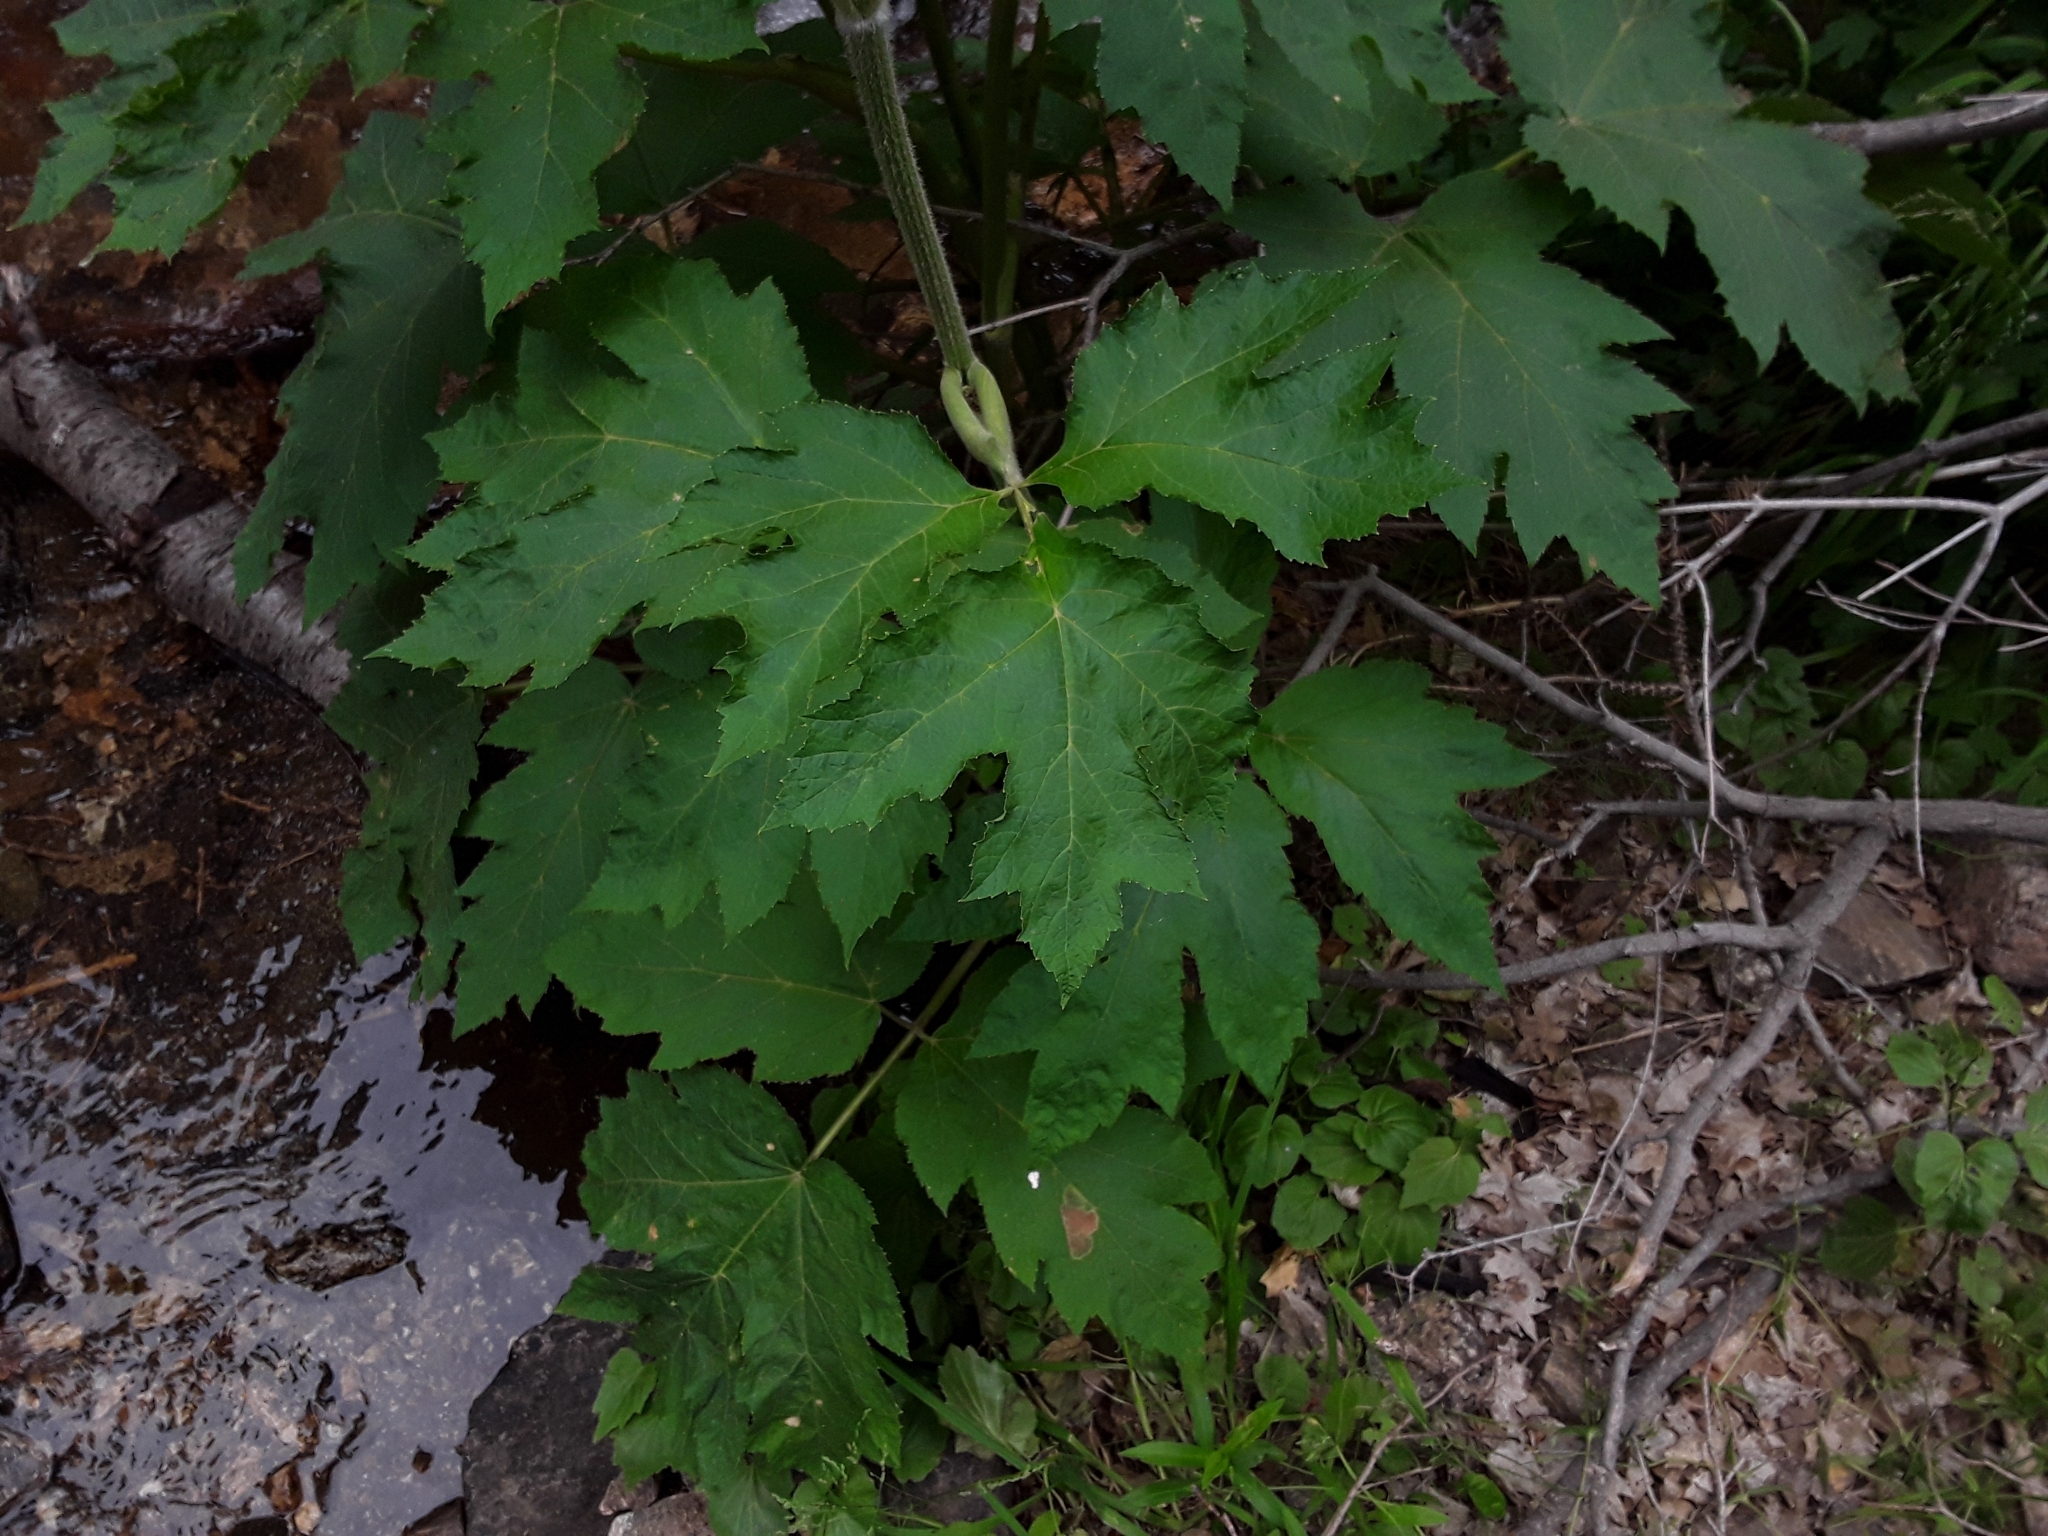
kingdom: Plantae
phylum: Tracheophyta
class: Magnoliopsida
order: Apiales
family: Apiaceae
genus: Heracleum
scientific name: Heracleum maximum
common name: American cow parsnip
